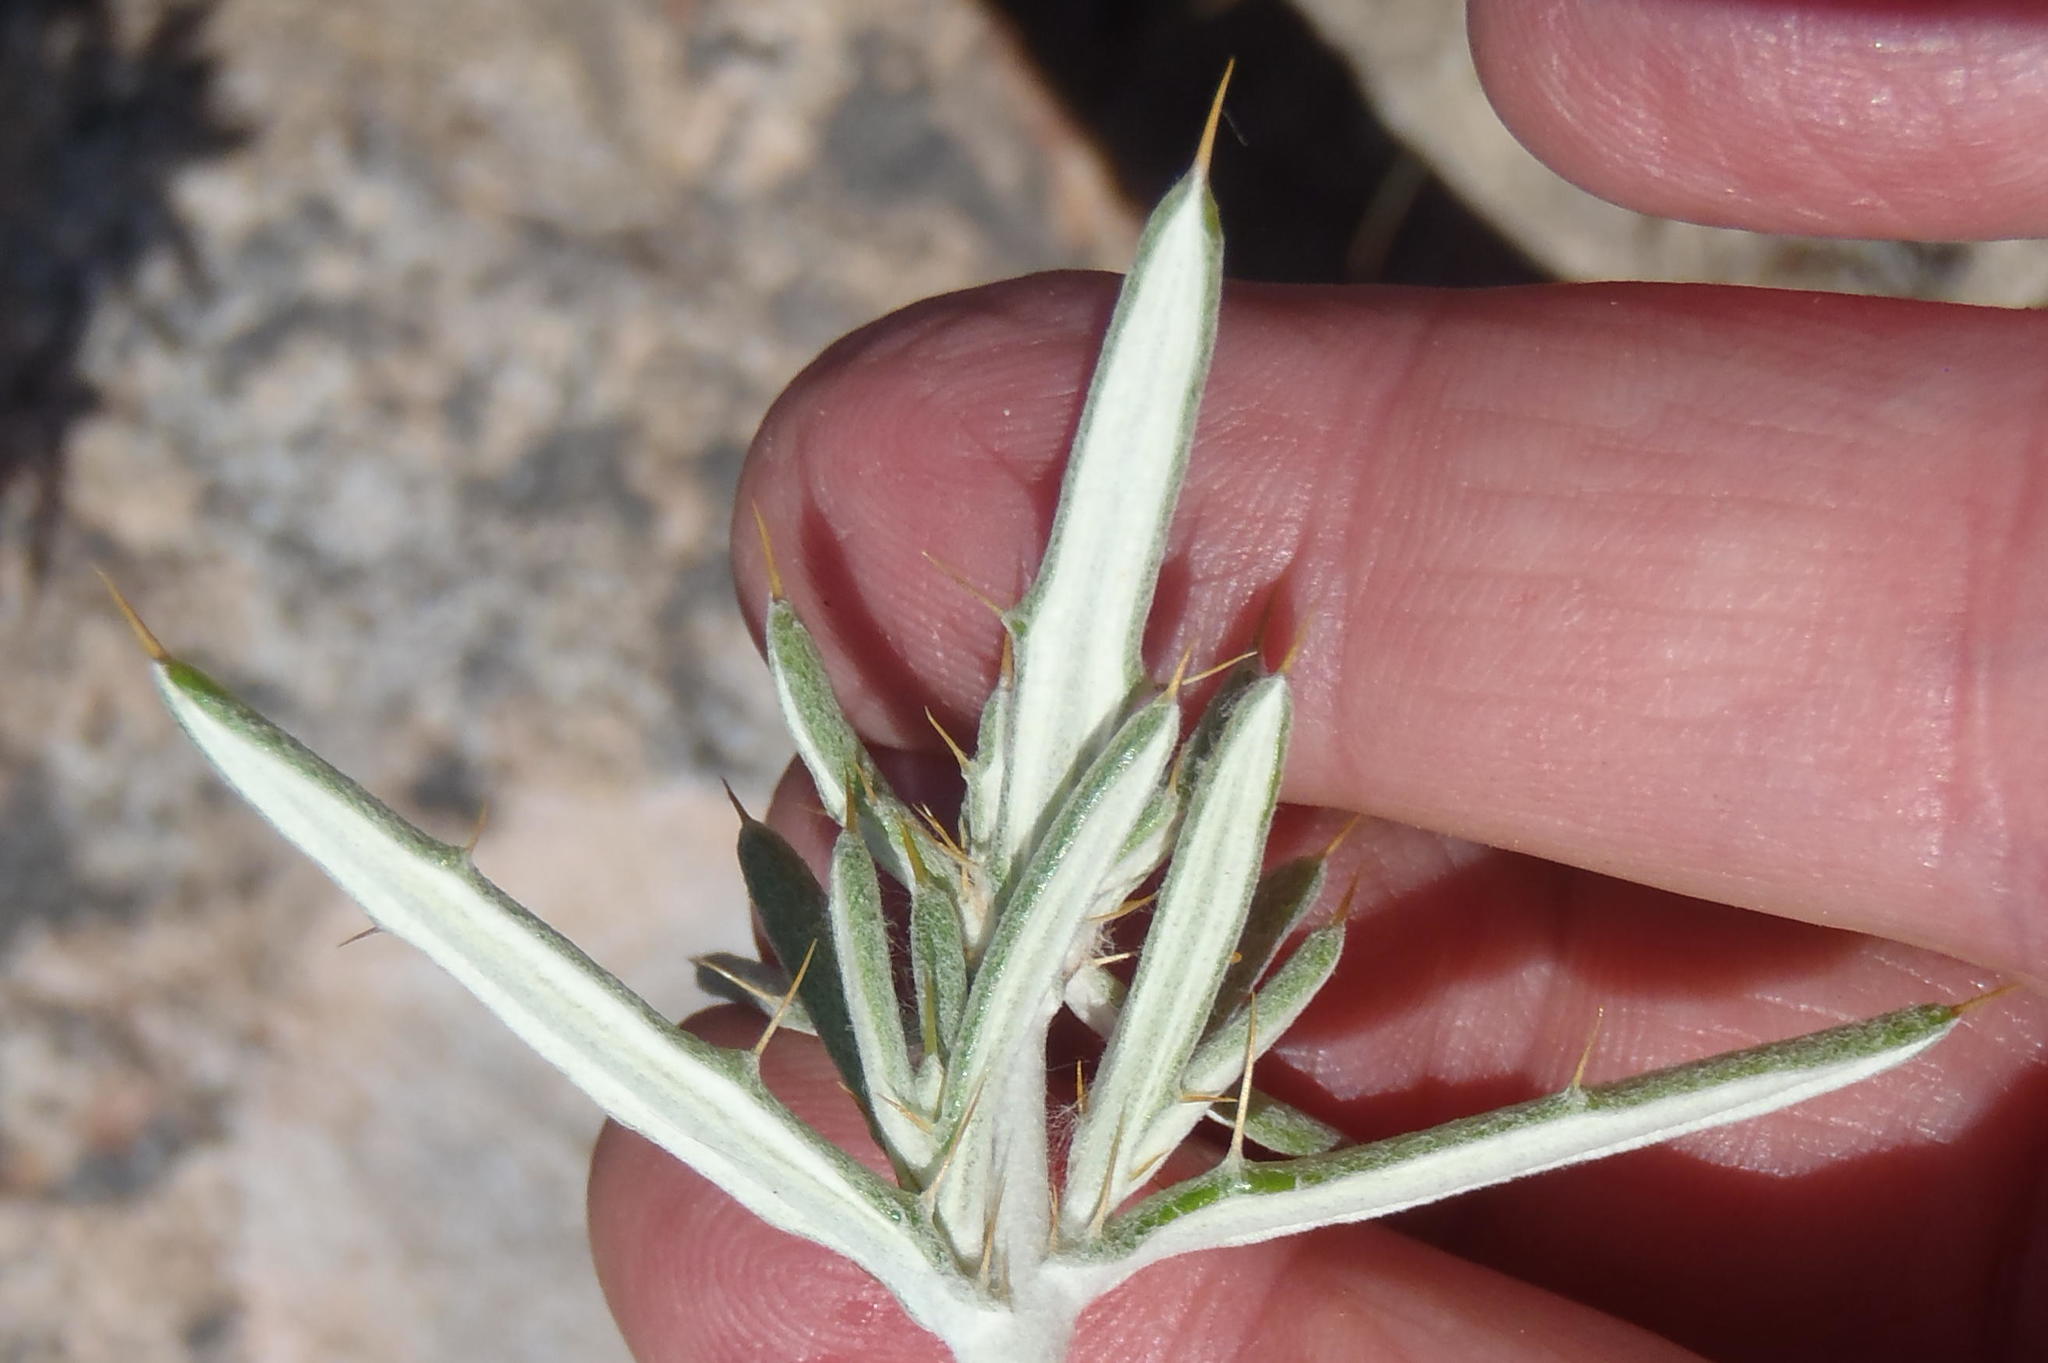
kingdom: Plantae
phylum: Tracheophyta
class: Magnoliopsida
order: Asterales
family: Asteraceae
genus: Berkheya
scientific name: Berkheya angustifolia
